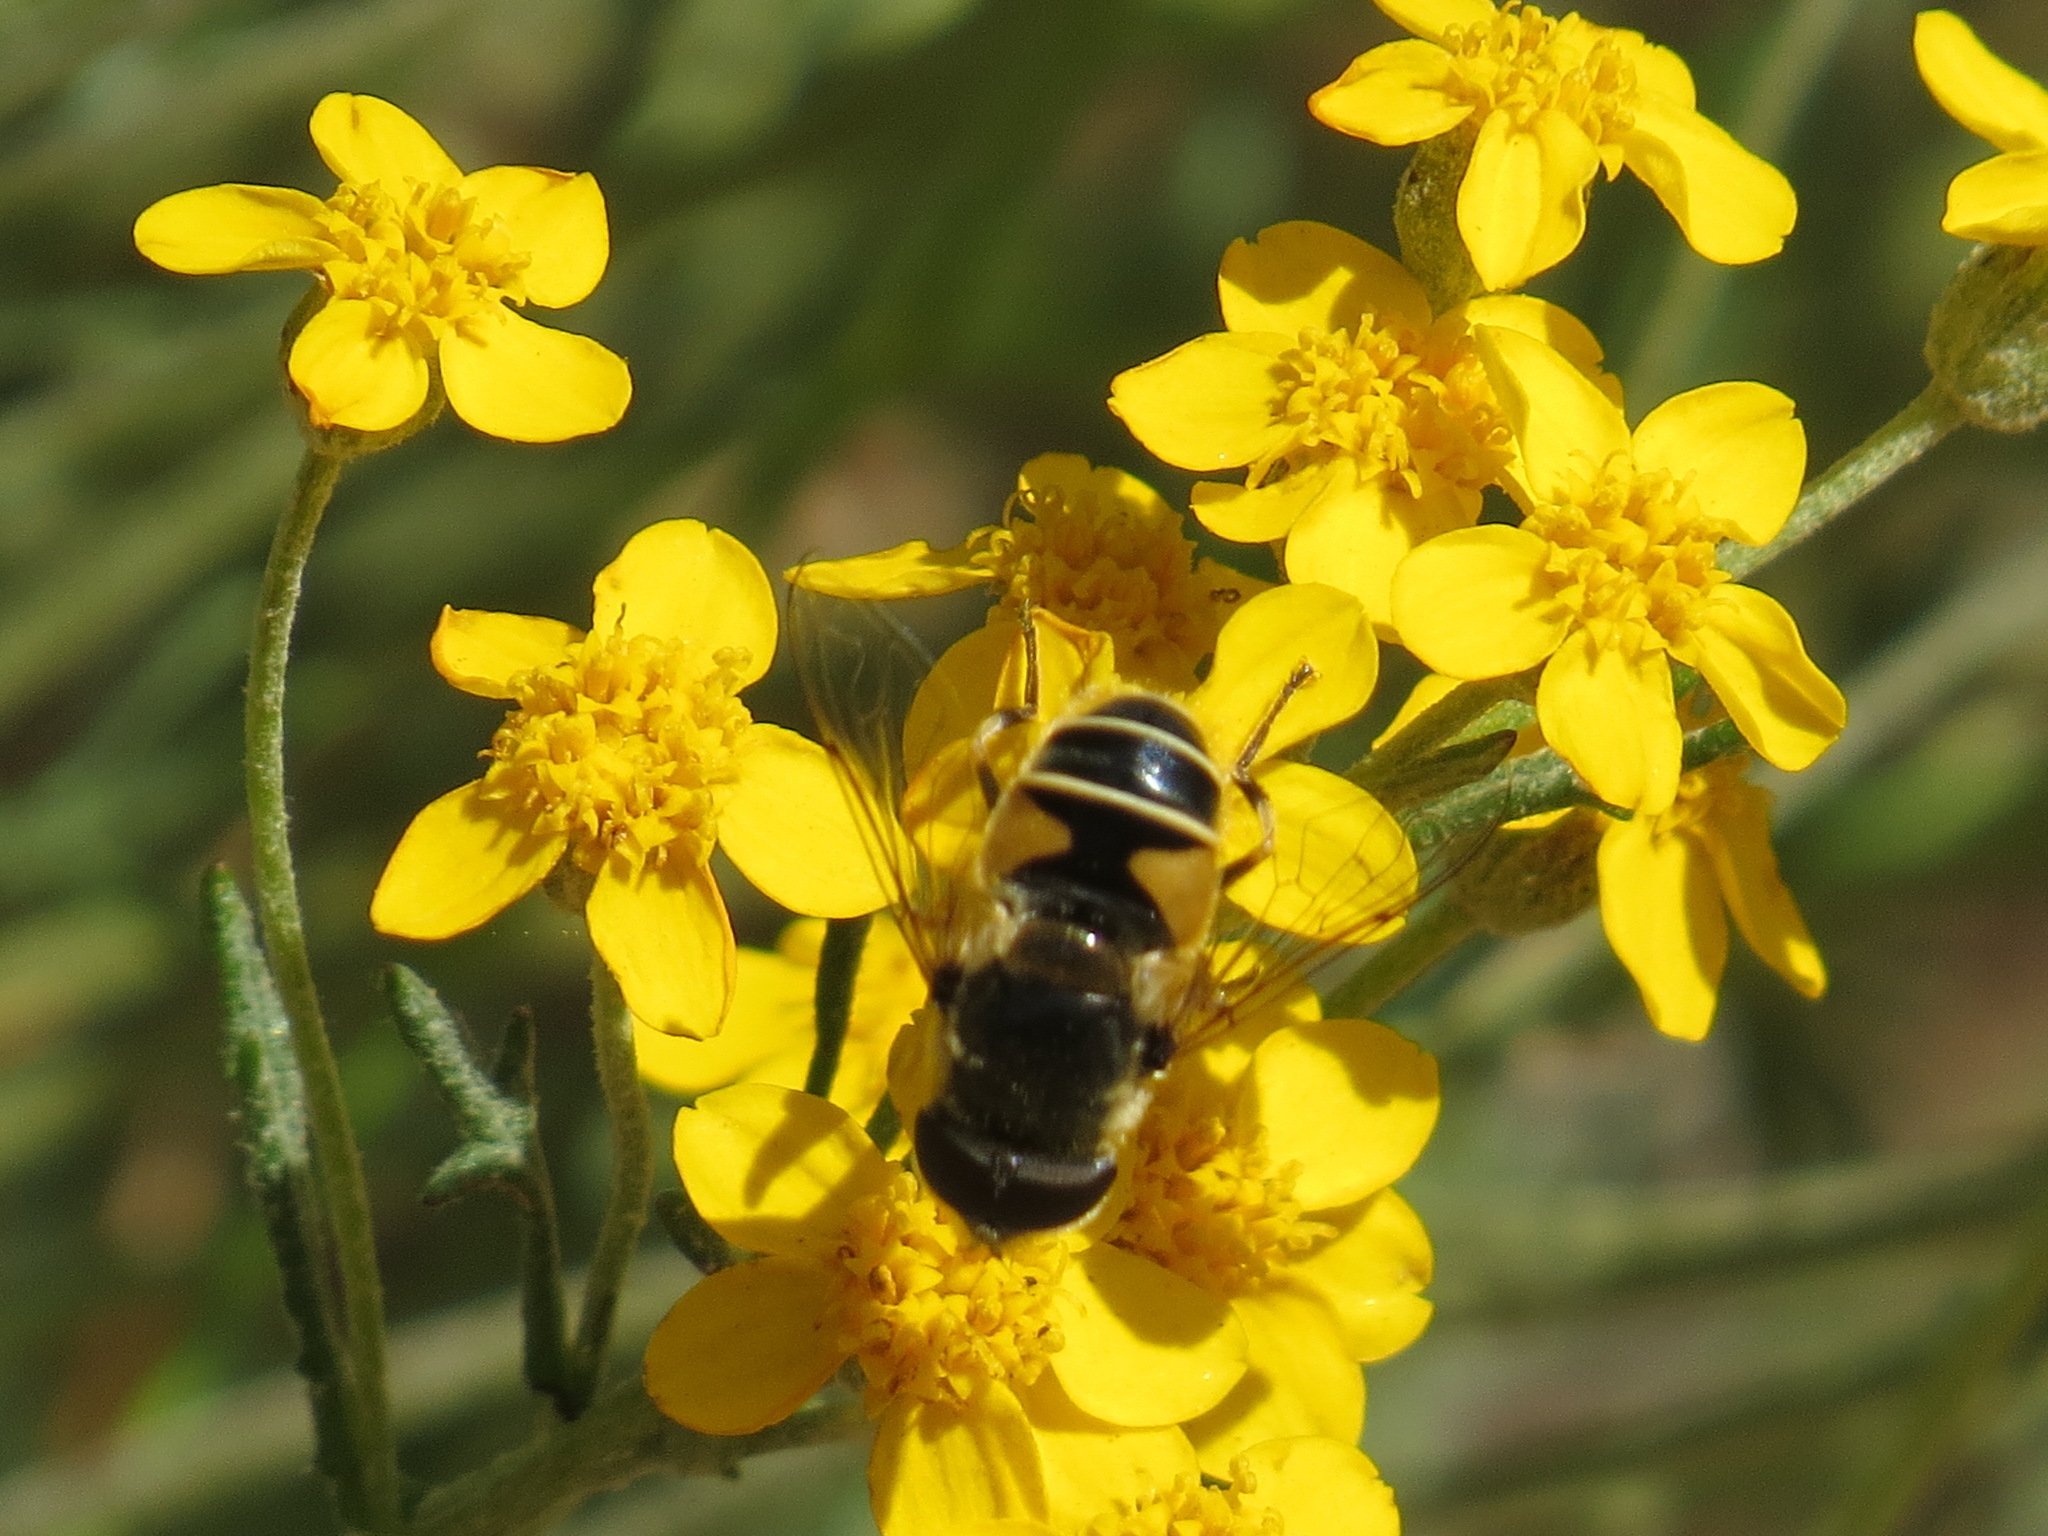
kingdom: Animalia
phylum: Arthropoda
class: Insecta
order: Diptera
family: Syrphidae
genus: Eristalis
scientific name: Eristalis hirta
